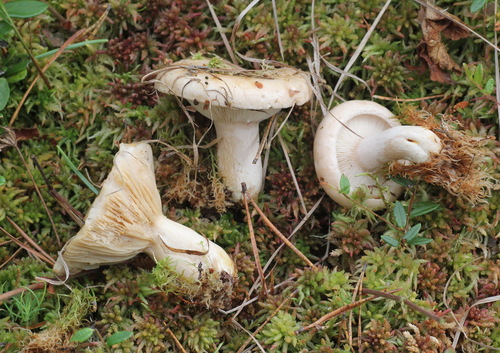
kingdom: Fungi
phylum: Basidiomycota
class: Agaricomycetes
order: Russulales
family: Russulaceae
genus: Lactarius
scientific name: Lactarius musteus
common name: Pine milkcap
